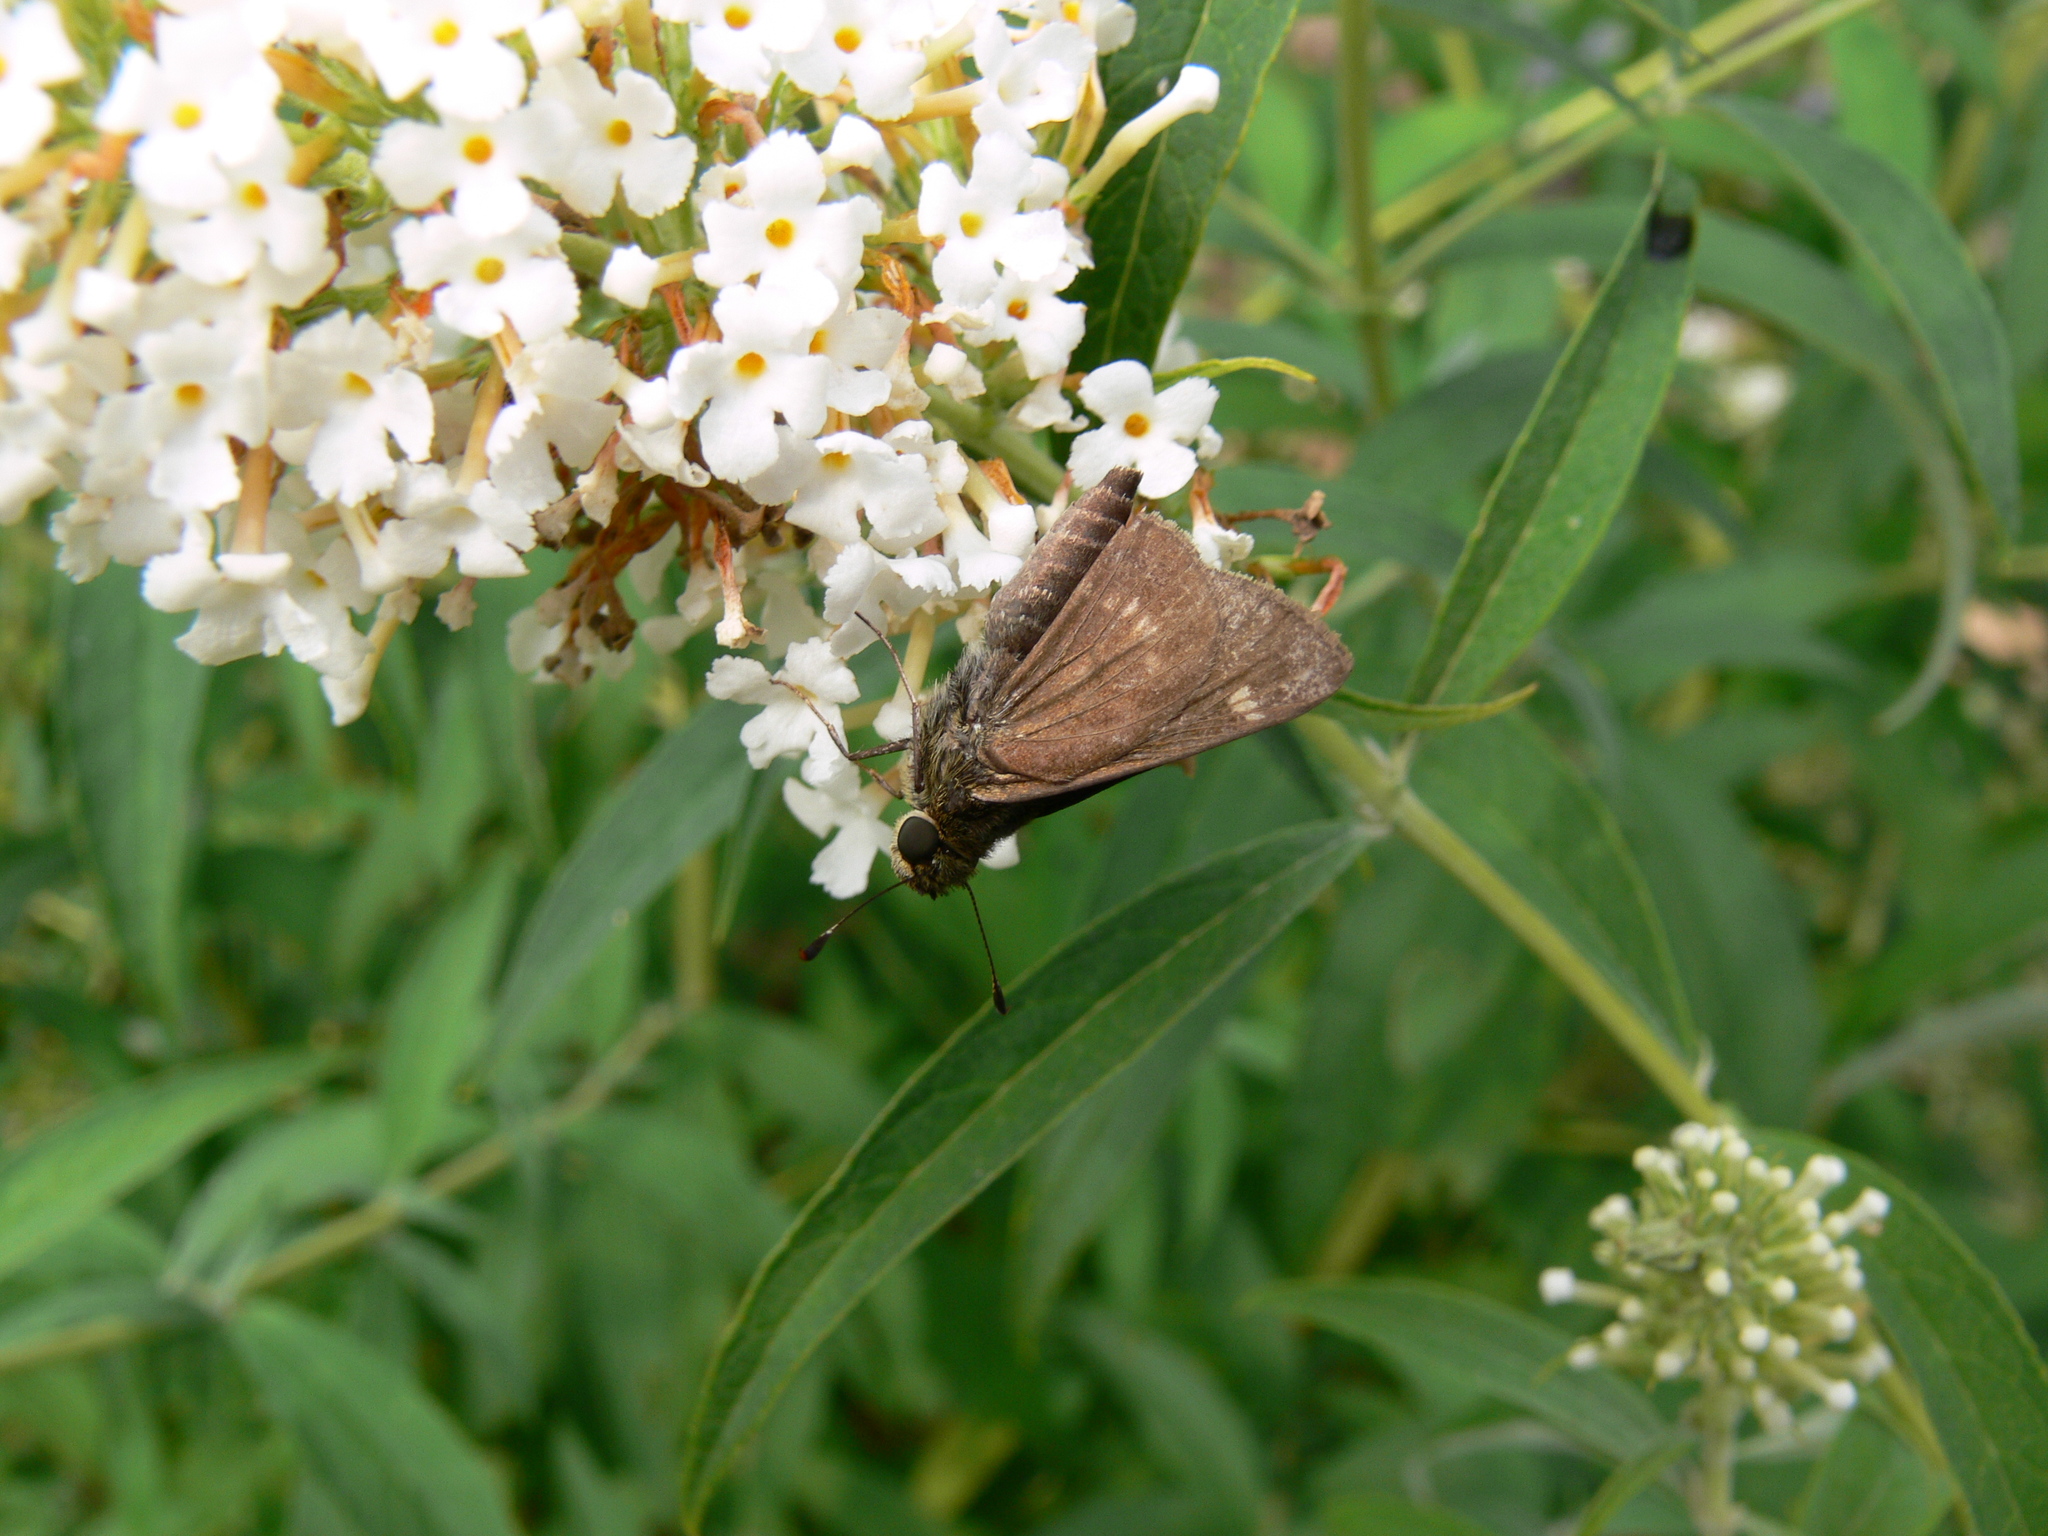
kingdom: Animalia
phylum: Arthropoda
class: Insecta
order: Lepidoptera
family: Hesperiidae
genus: Vernia
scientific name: Vernia verna
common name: Little glassywing
